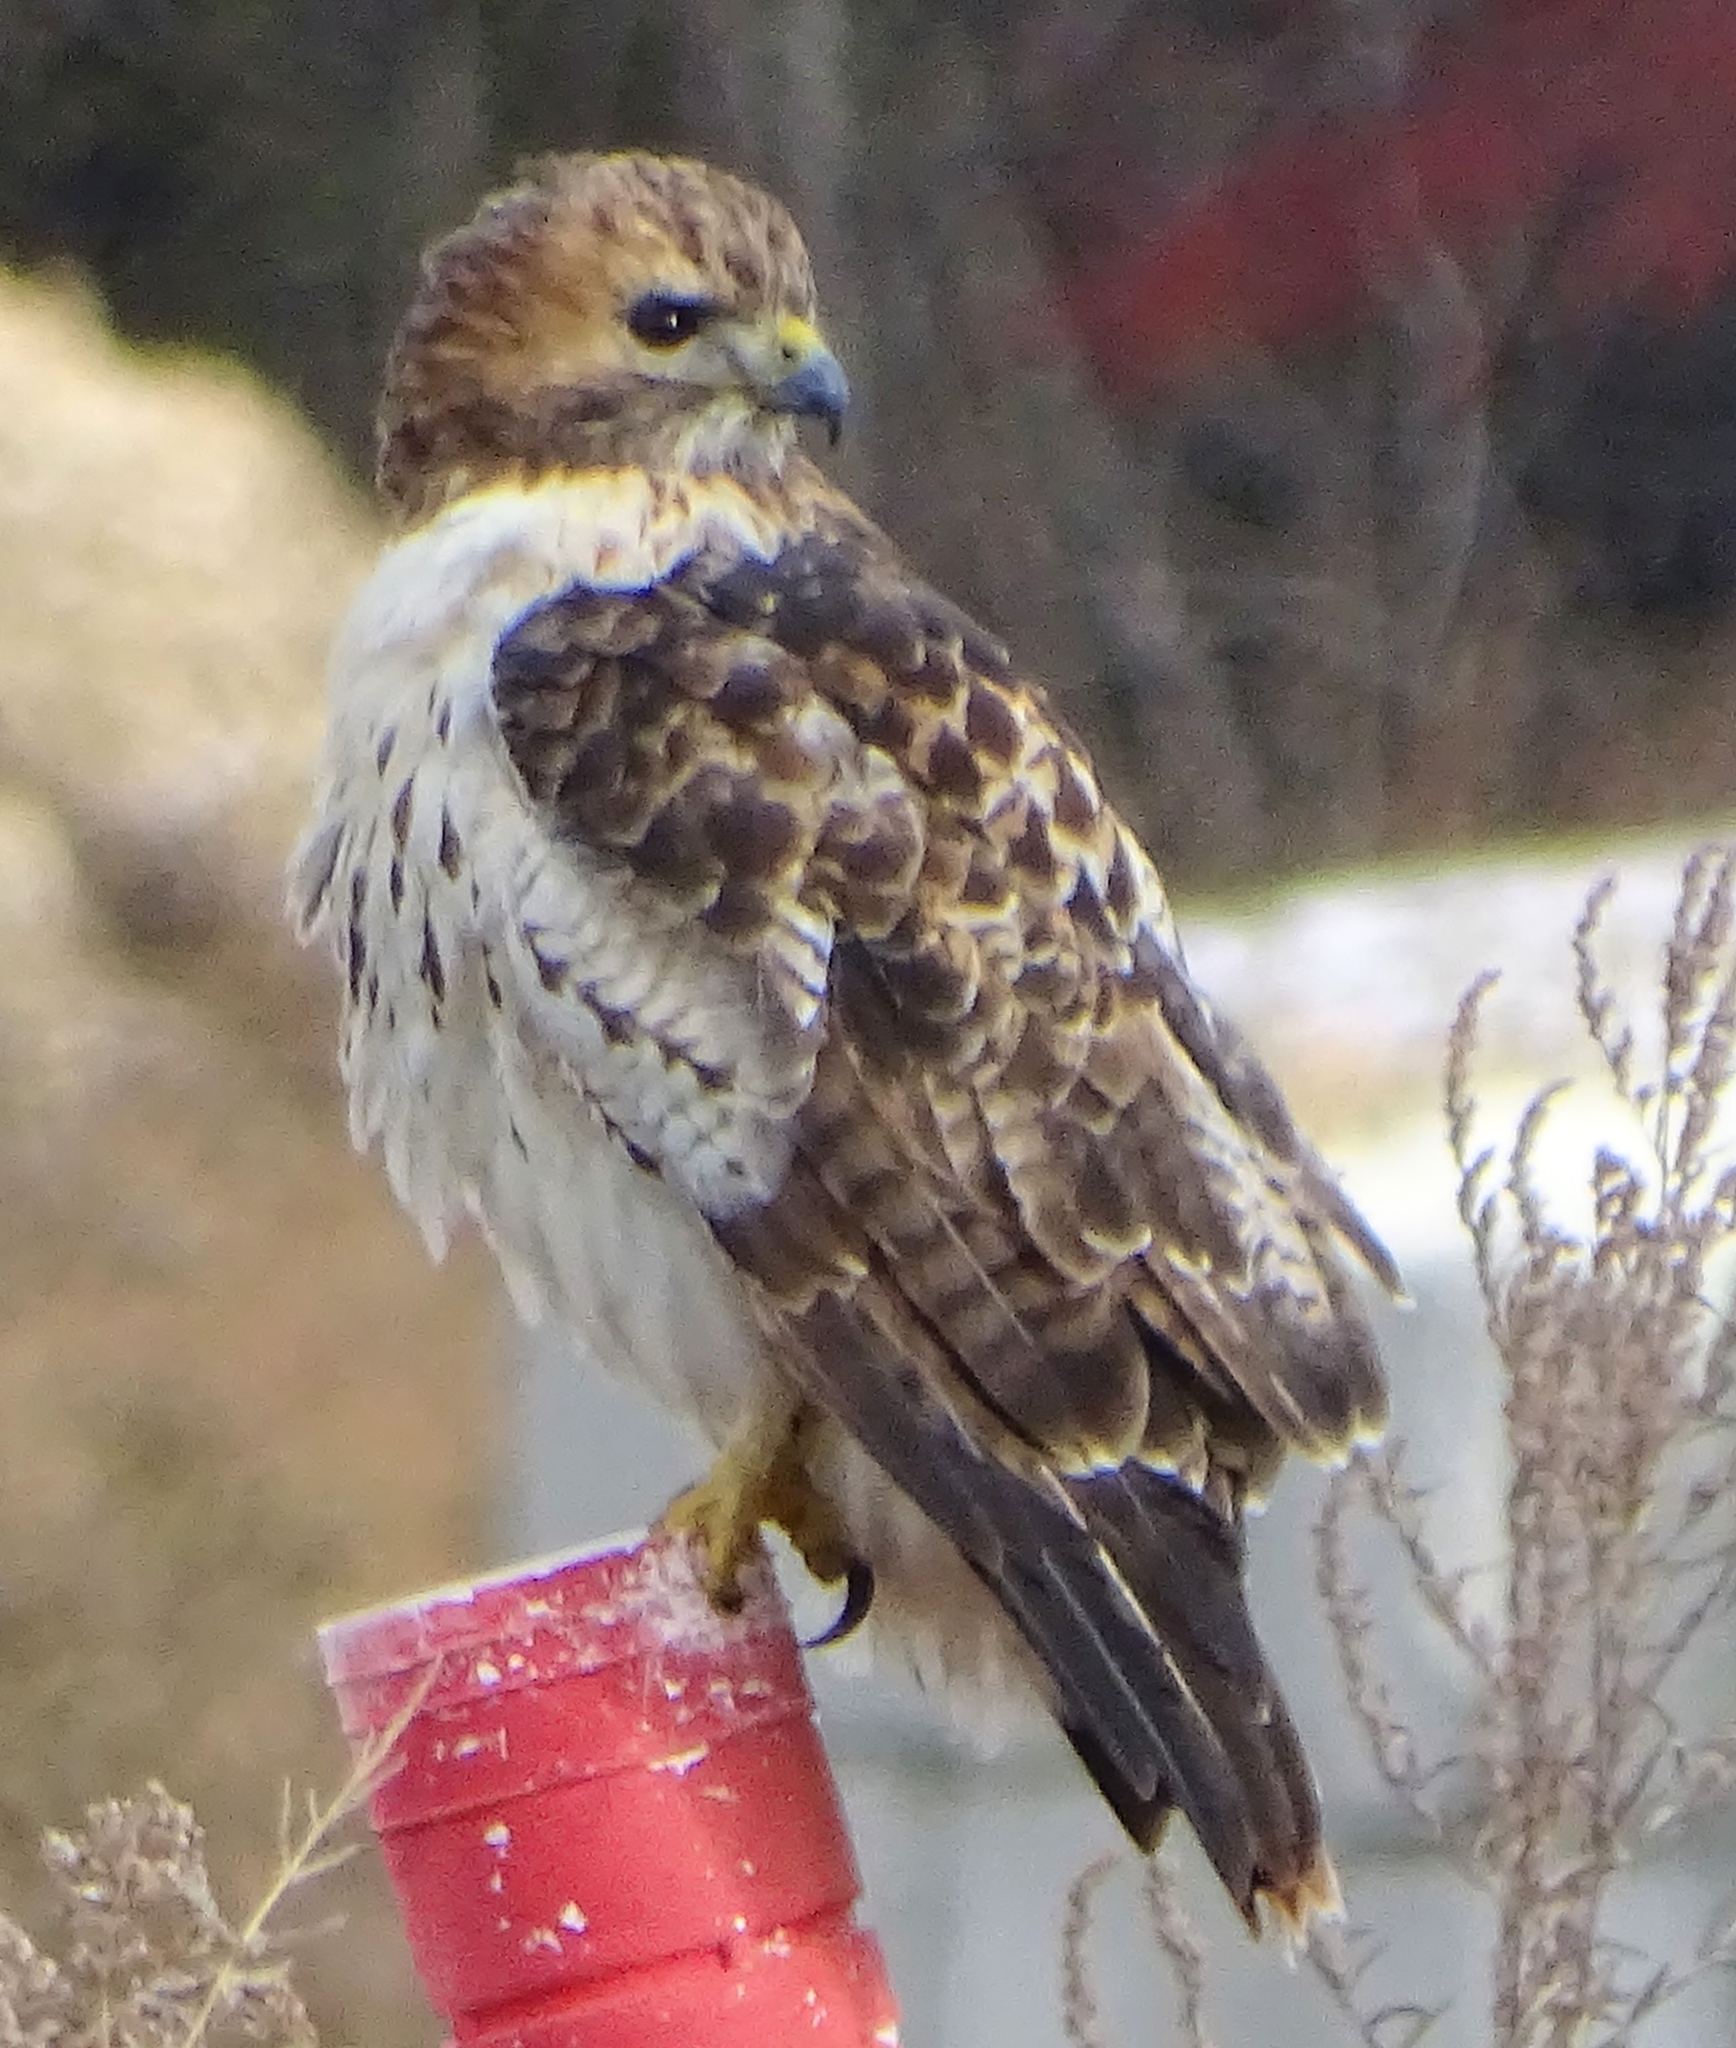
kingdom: Animalia
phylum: Chordata
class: Aves
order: Accipitriformes
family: Accipitridae
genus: Buteo
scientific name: Buteo jamaicensis
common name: Red-tailed hawk
